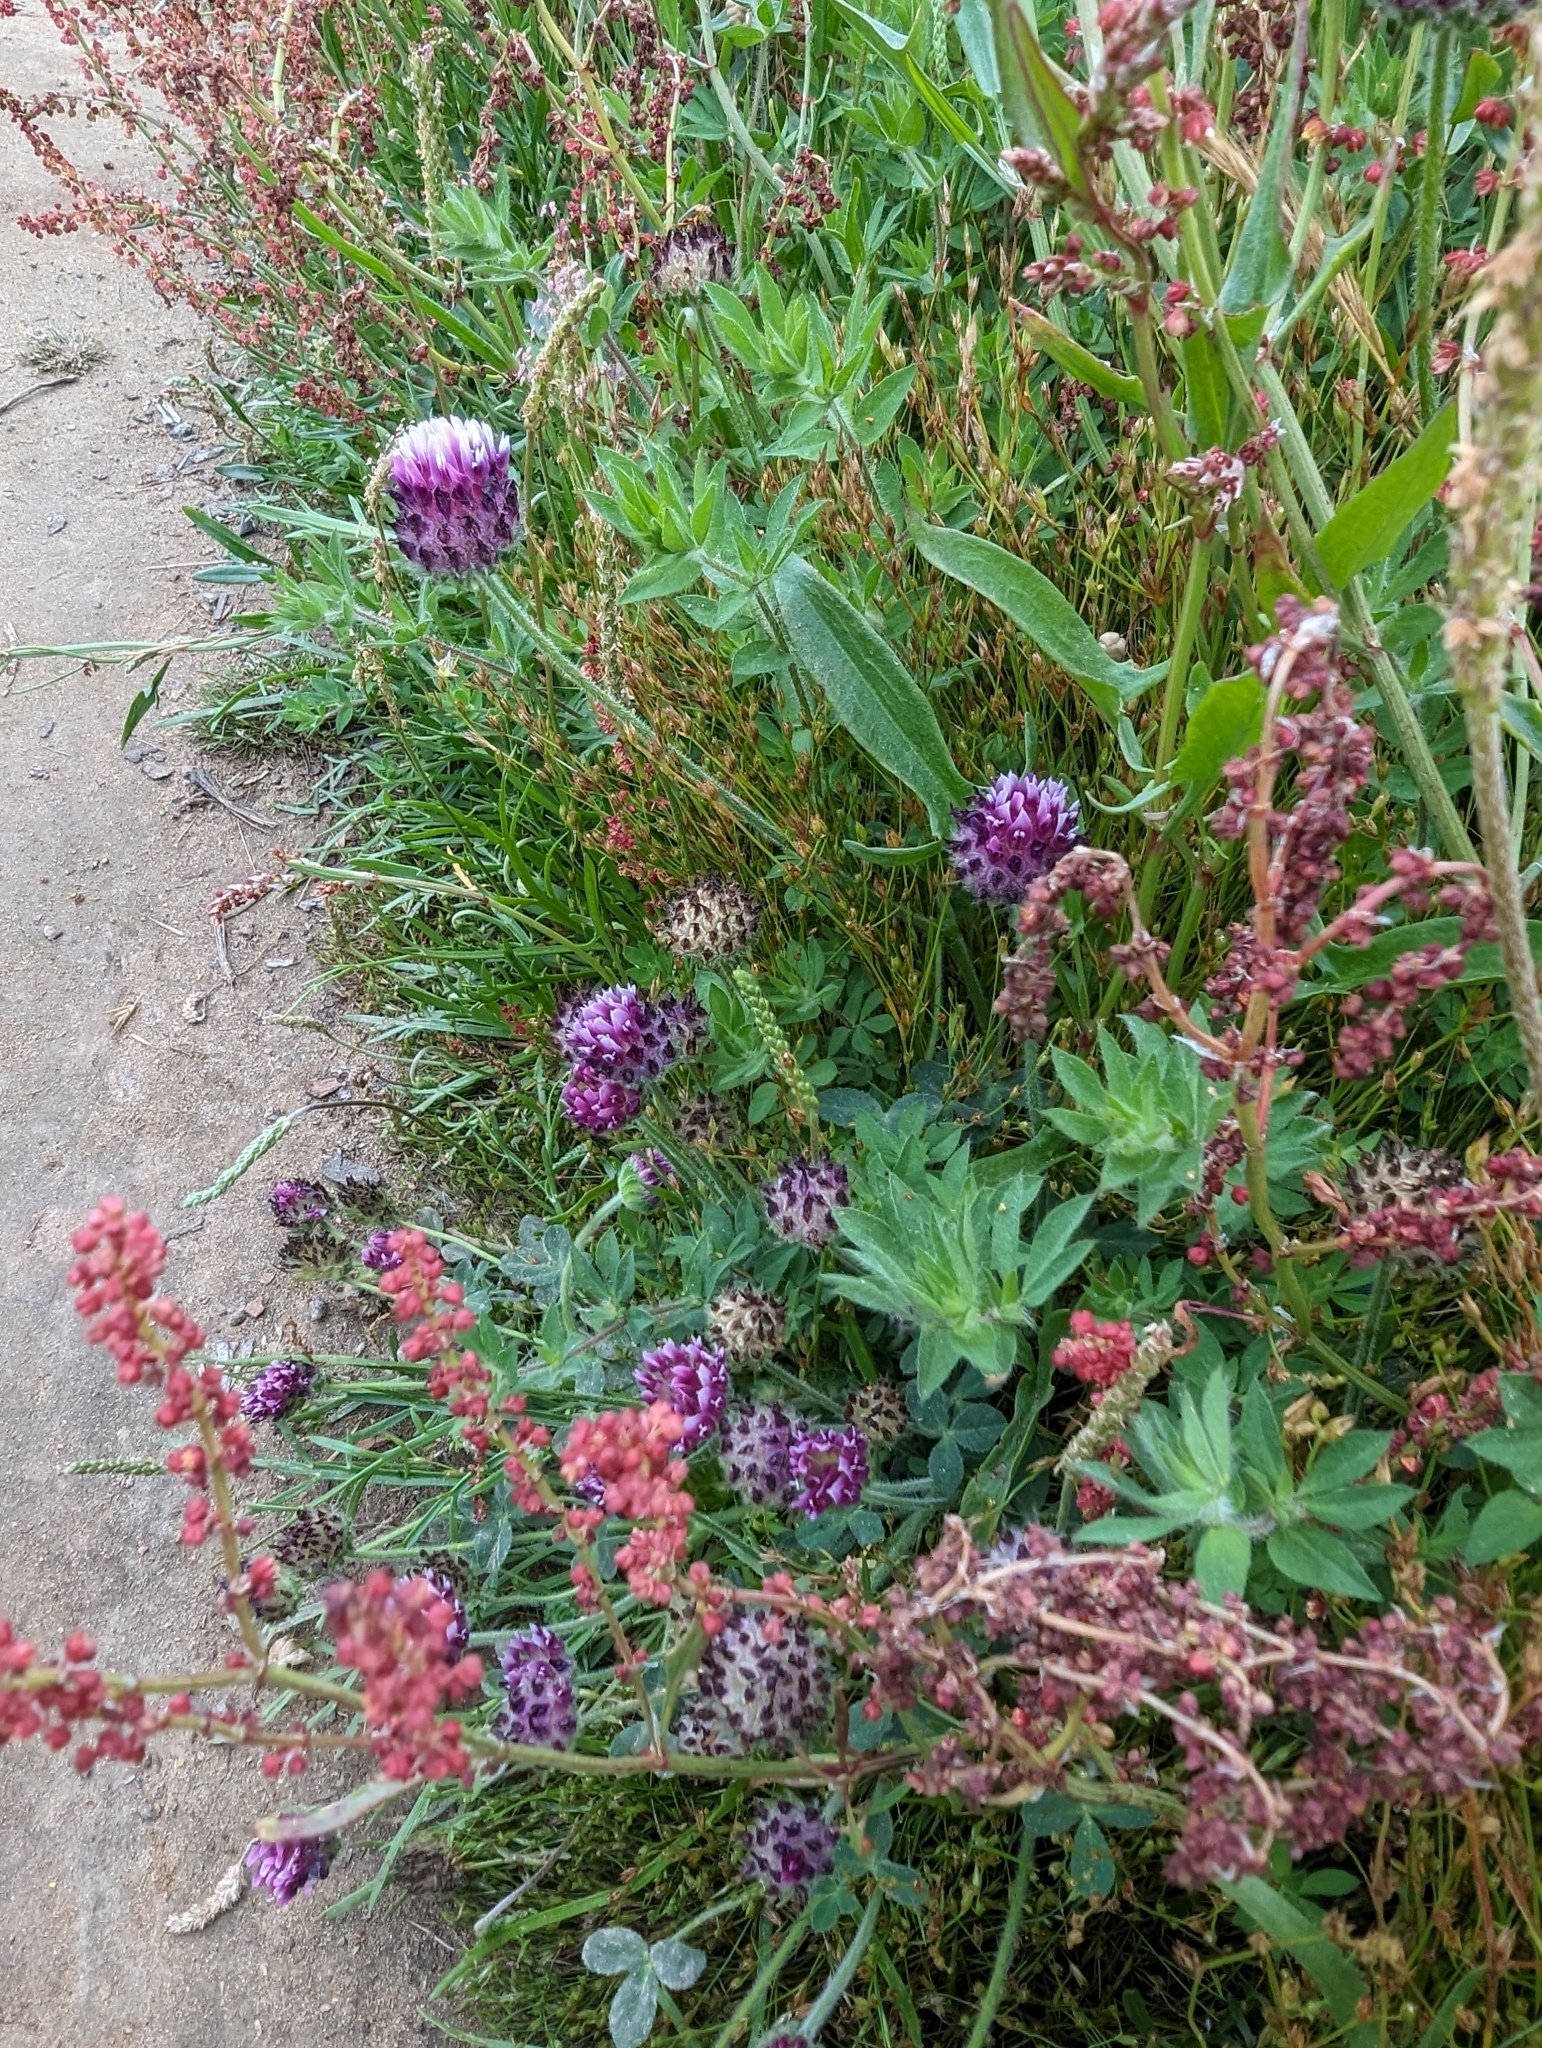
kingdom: Plantae
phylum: Tracheophyta
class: Magnoliopsida
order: Fabales
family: Fabaceae
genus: Trifolium
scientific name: Trifolium barbigerum
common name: Bearded clover
